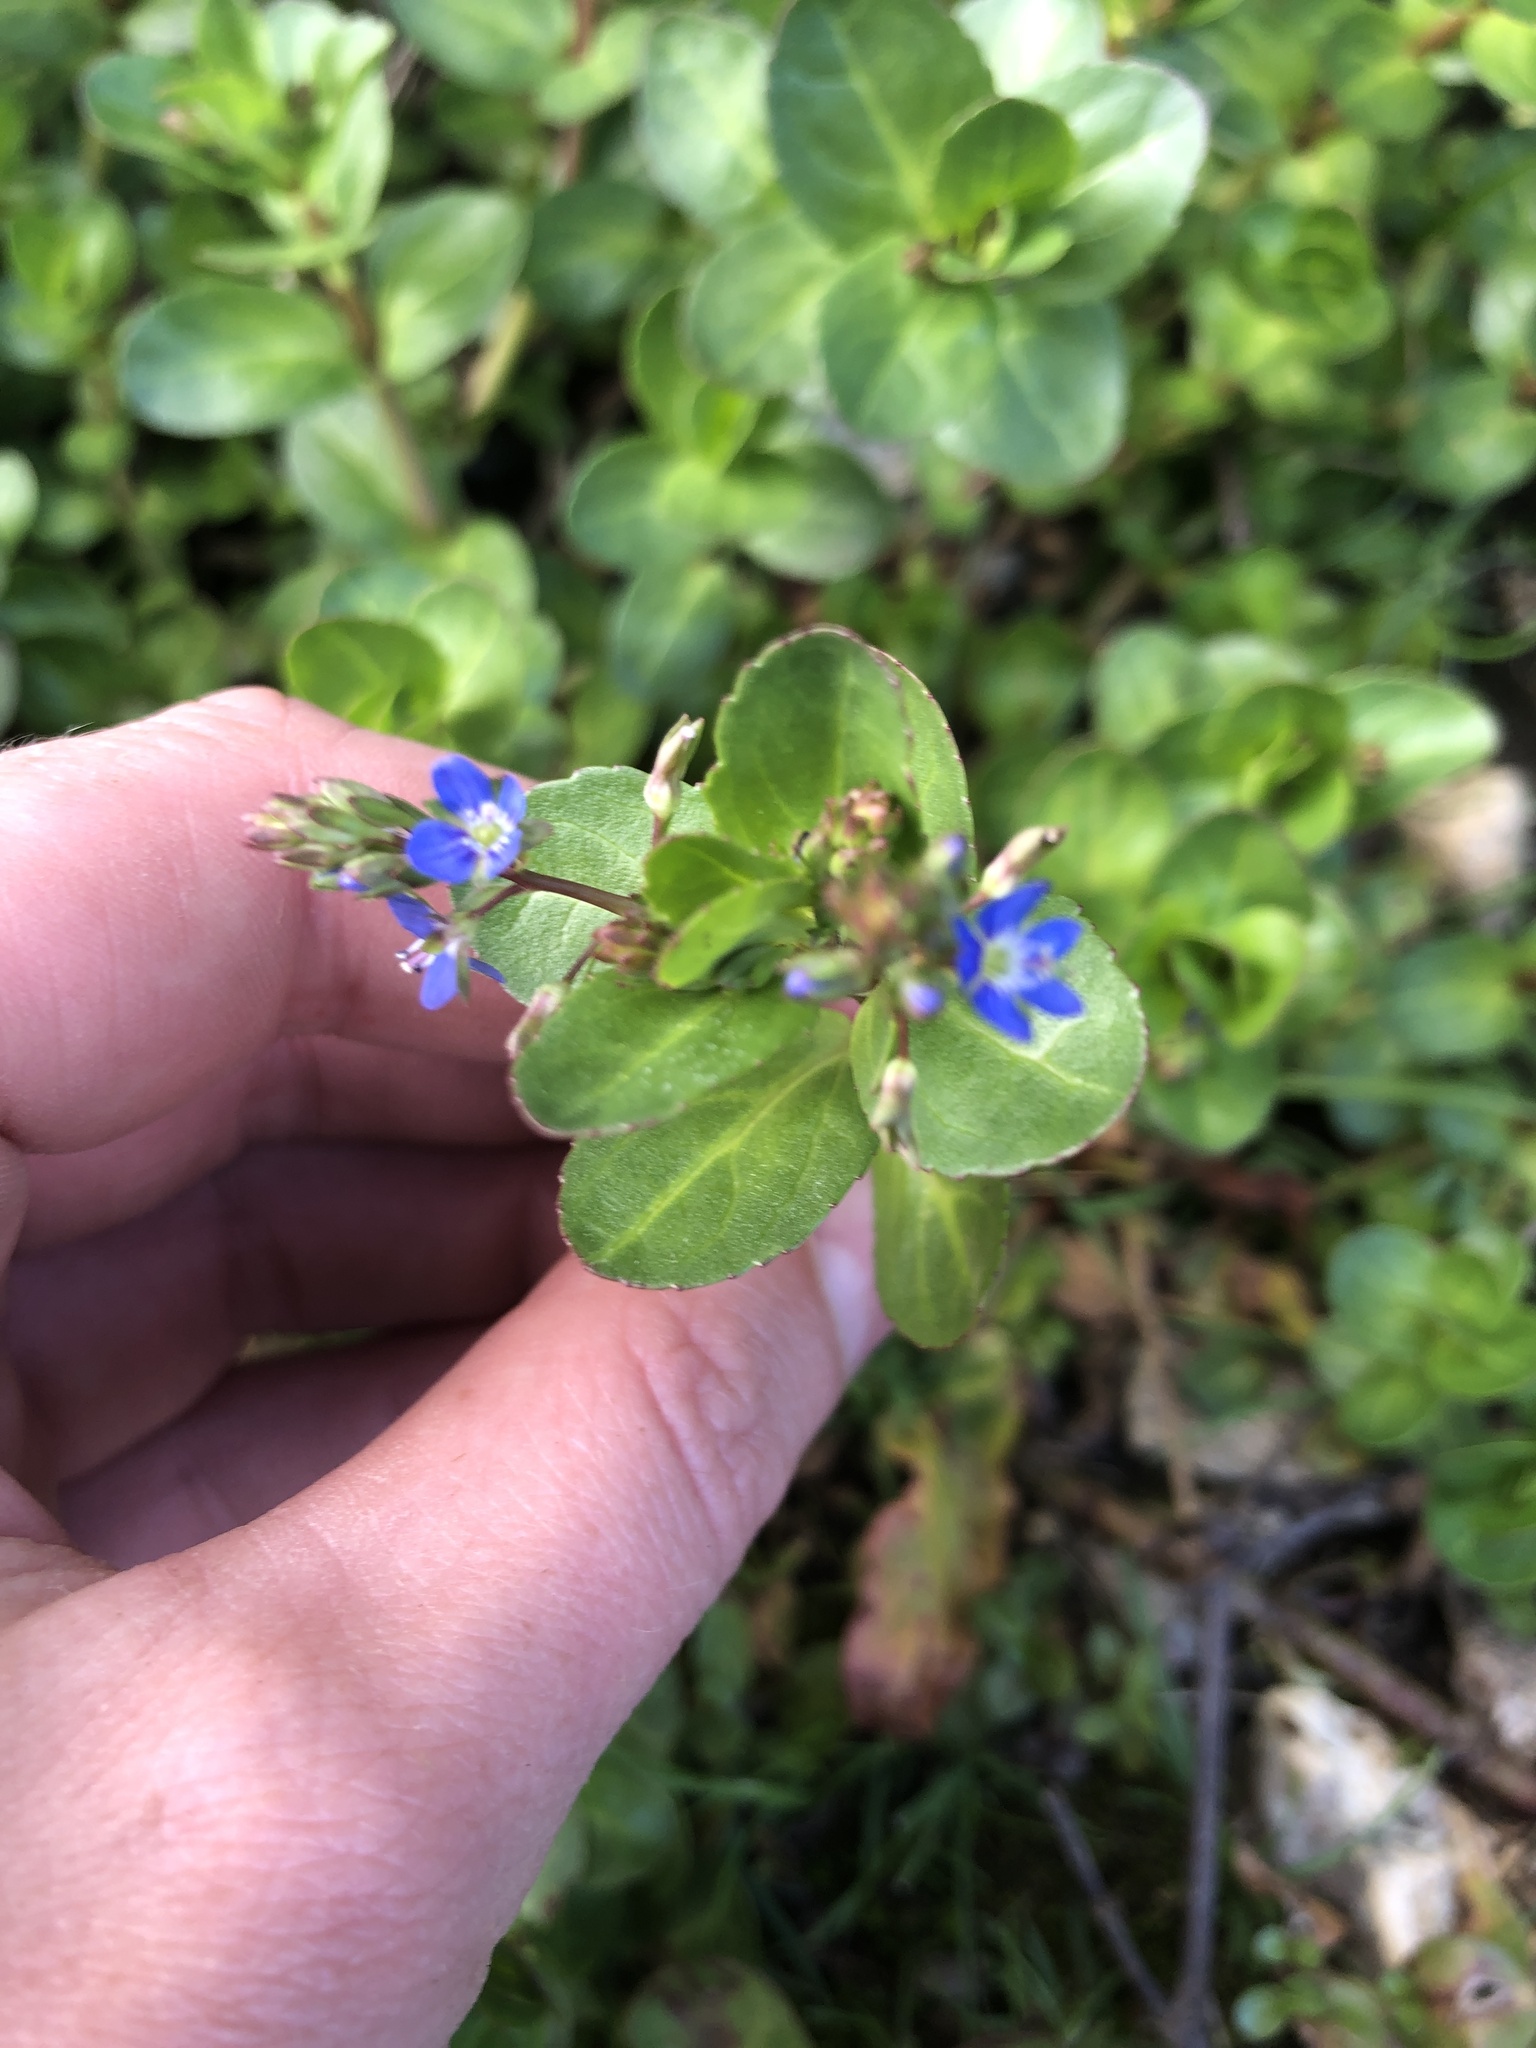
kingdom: Plantae
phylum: Tracheophyta
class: Magnoliopsida
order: Lamiales
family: Plantaginaceae
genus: Veronica
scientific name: Veronica beccabunga
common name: Brooklime
